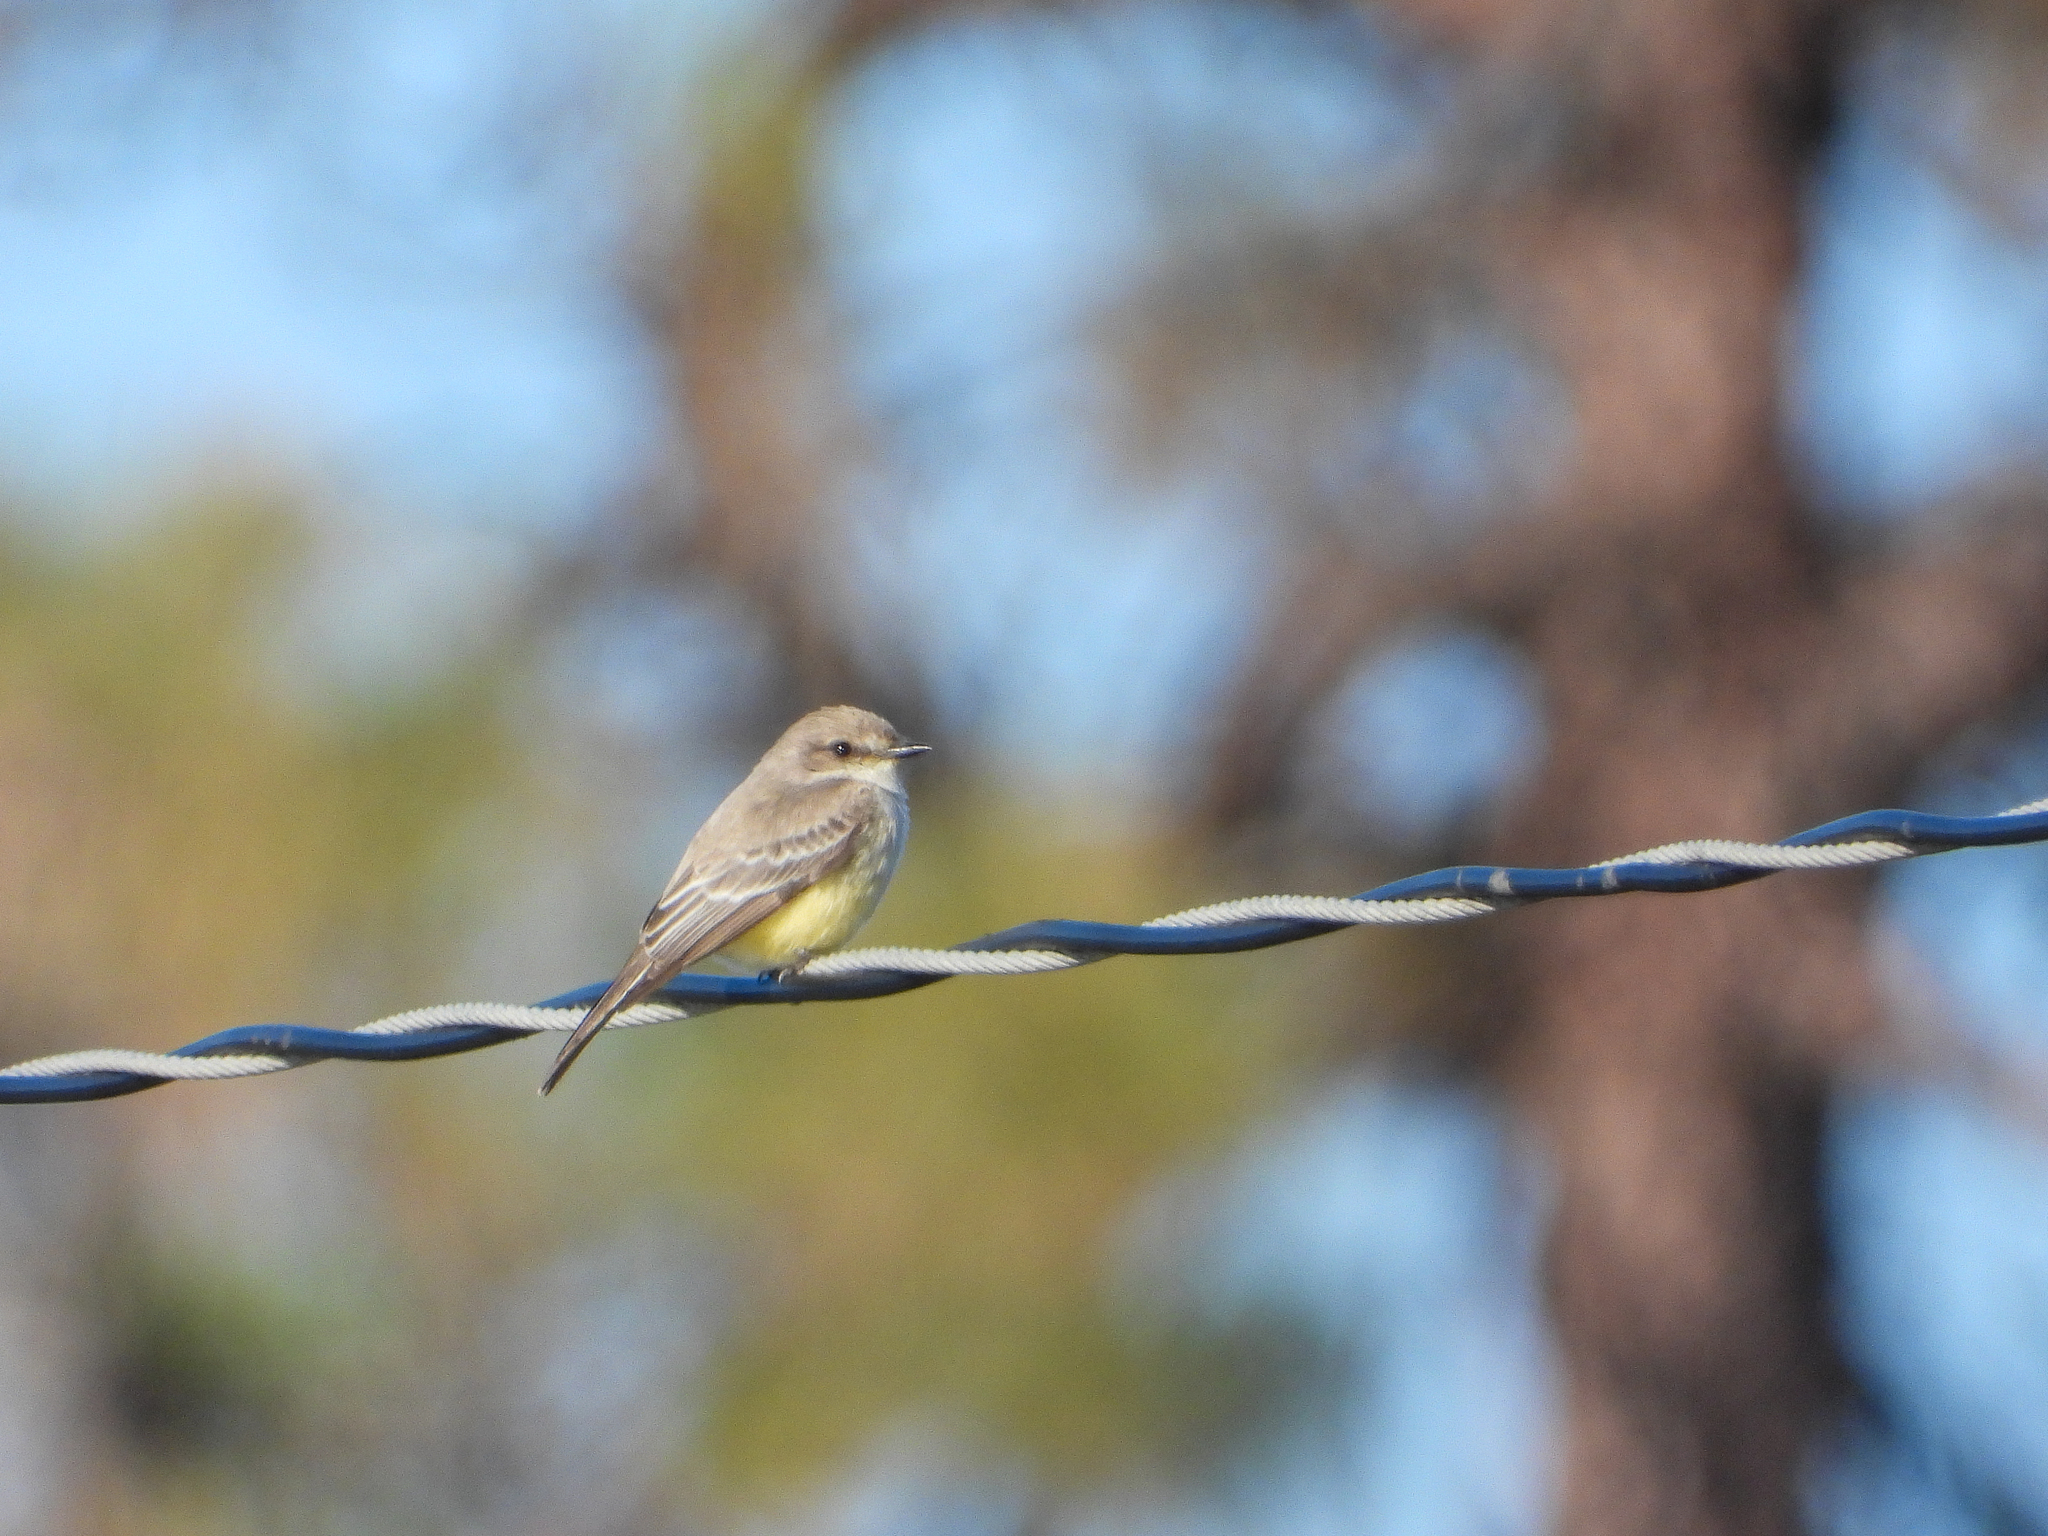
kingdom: Animalia
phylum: Chordata
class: Aves
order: Passeriformes
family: Tyrannidae
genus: Pyrocephalus
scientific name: Pyrocephalus rubinus
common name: Vermilion flycatcher
